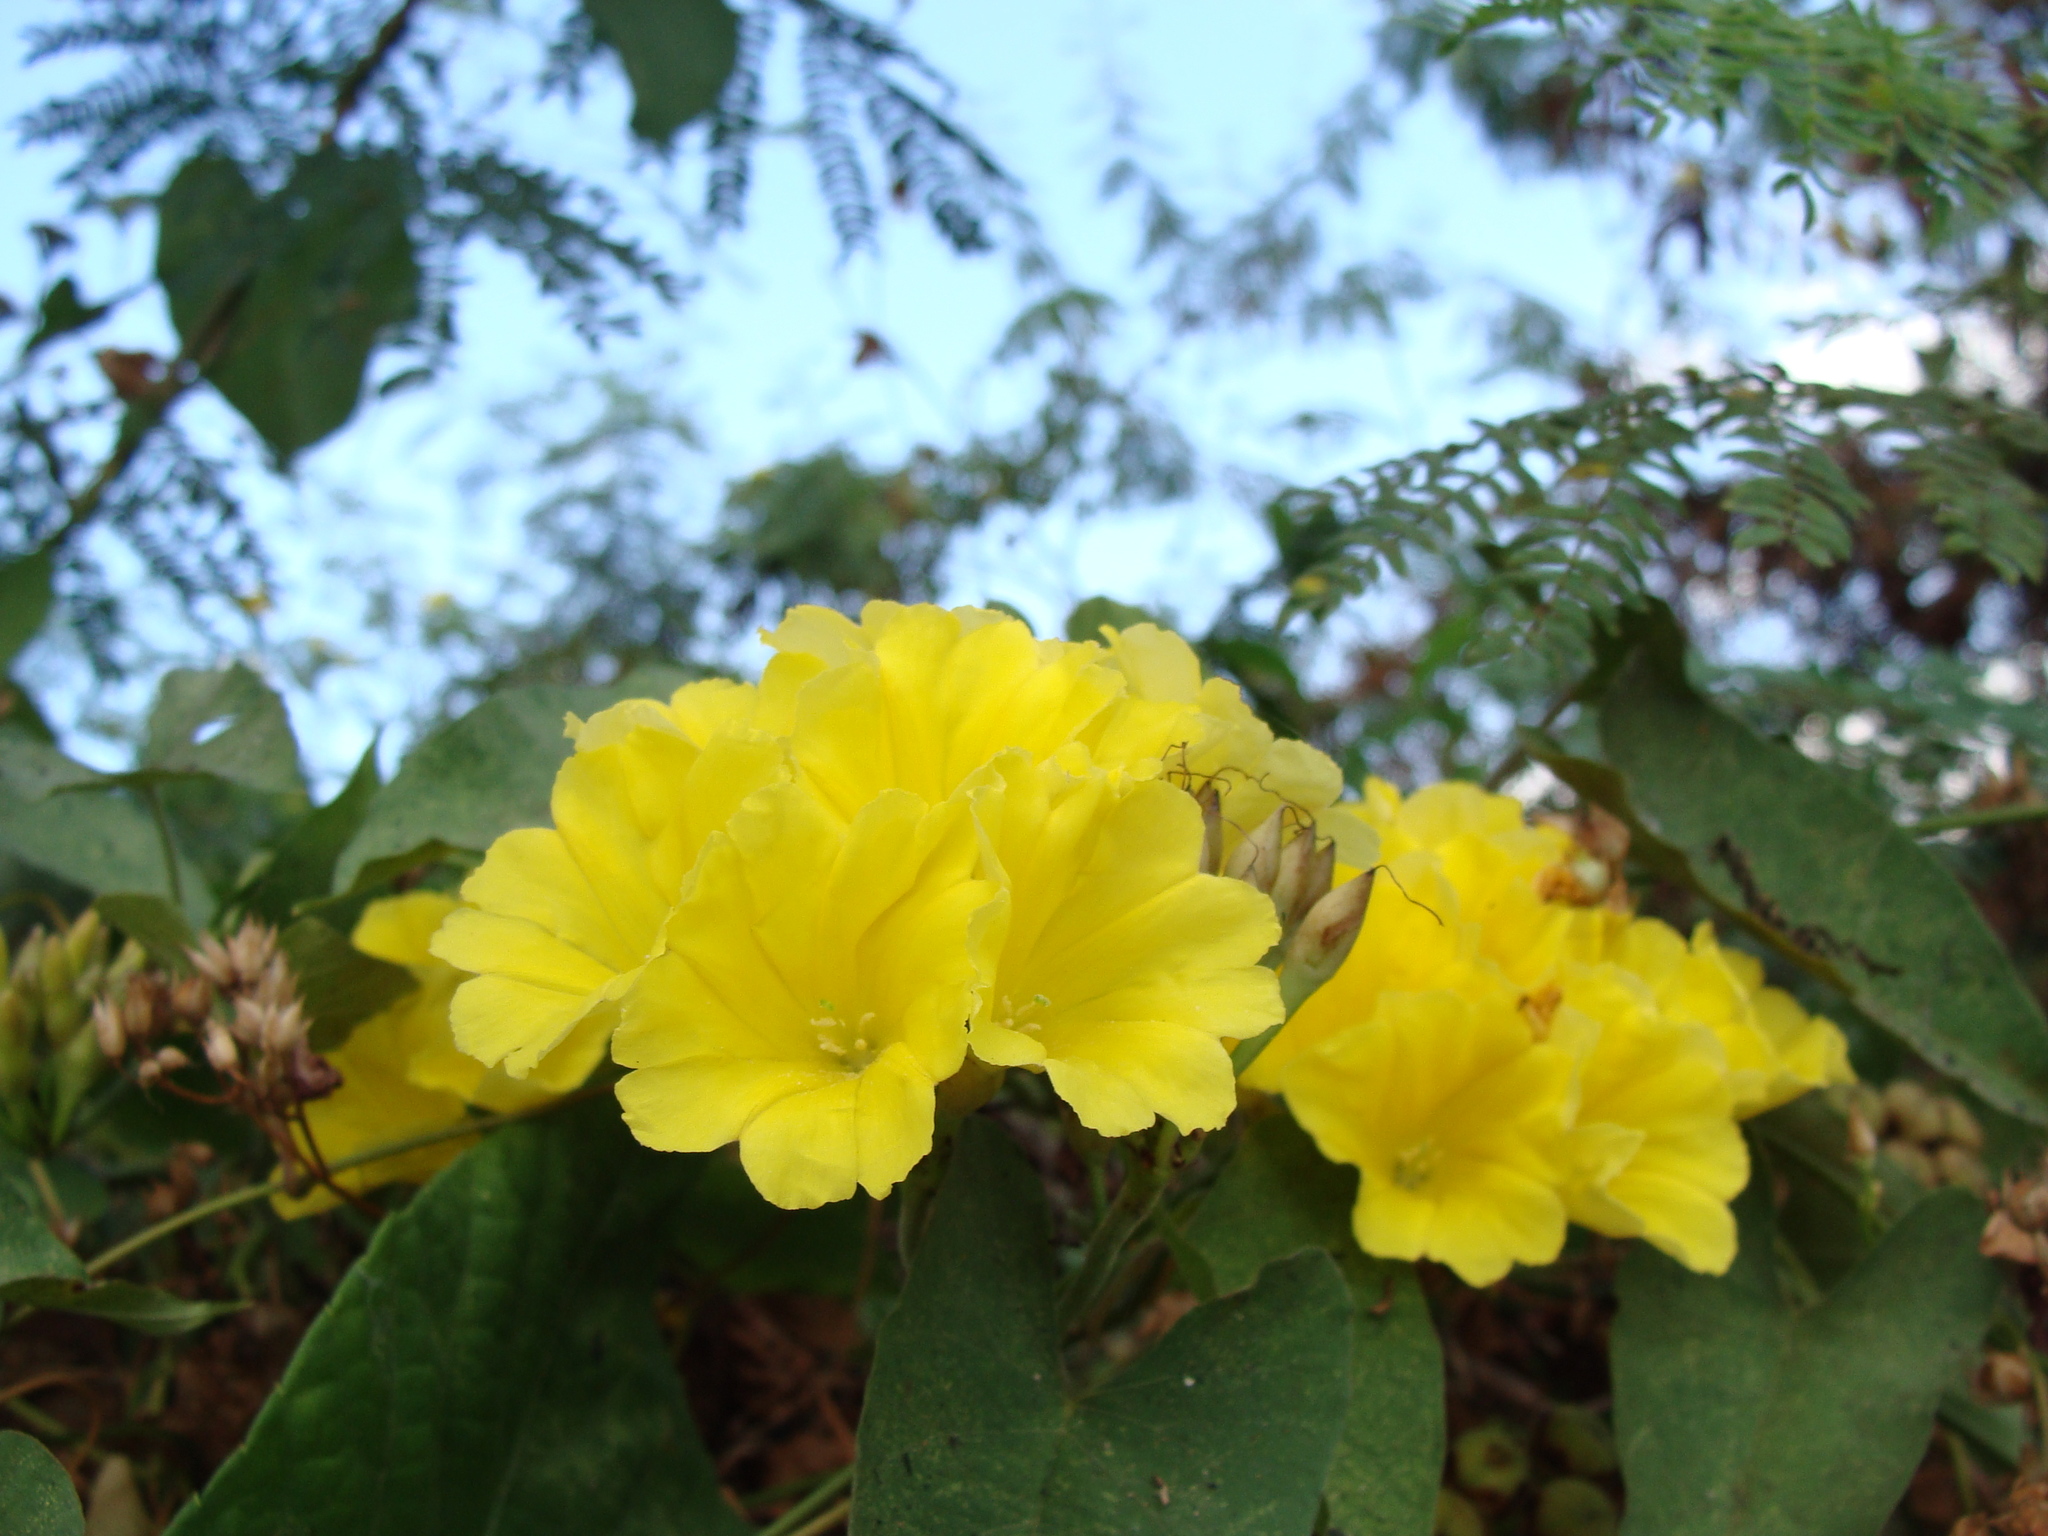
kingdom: Plantae
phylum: Tracheophyta
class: Magnoliopsida
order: Solanales
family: Convolvulaceae
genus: Camonea
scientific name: Camonea umbellata
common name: Hogvine
